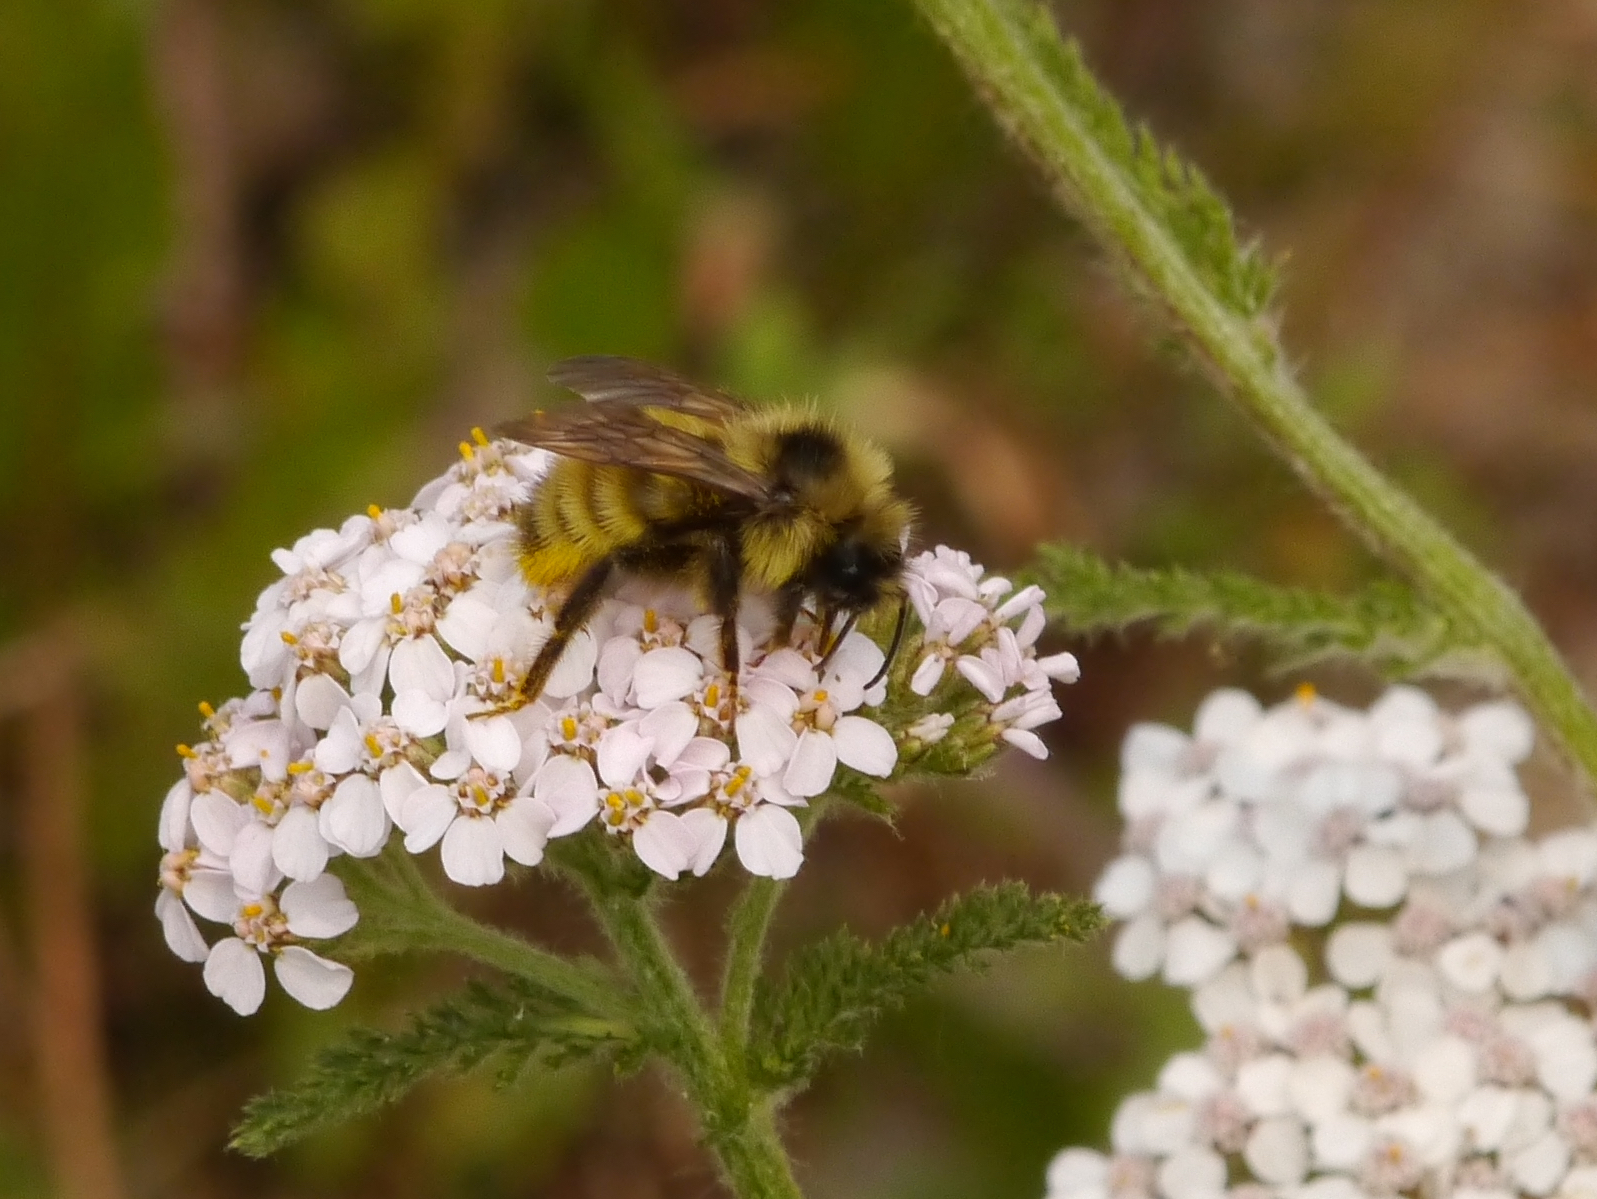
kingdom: Animalia
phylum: Arthropoda
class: Insecta
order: Hymenoptera
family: Apidae
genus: Bombus
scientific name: Bombus flavidus
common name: Fernald cuckoo bumble bee
